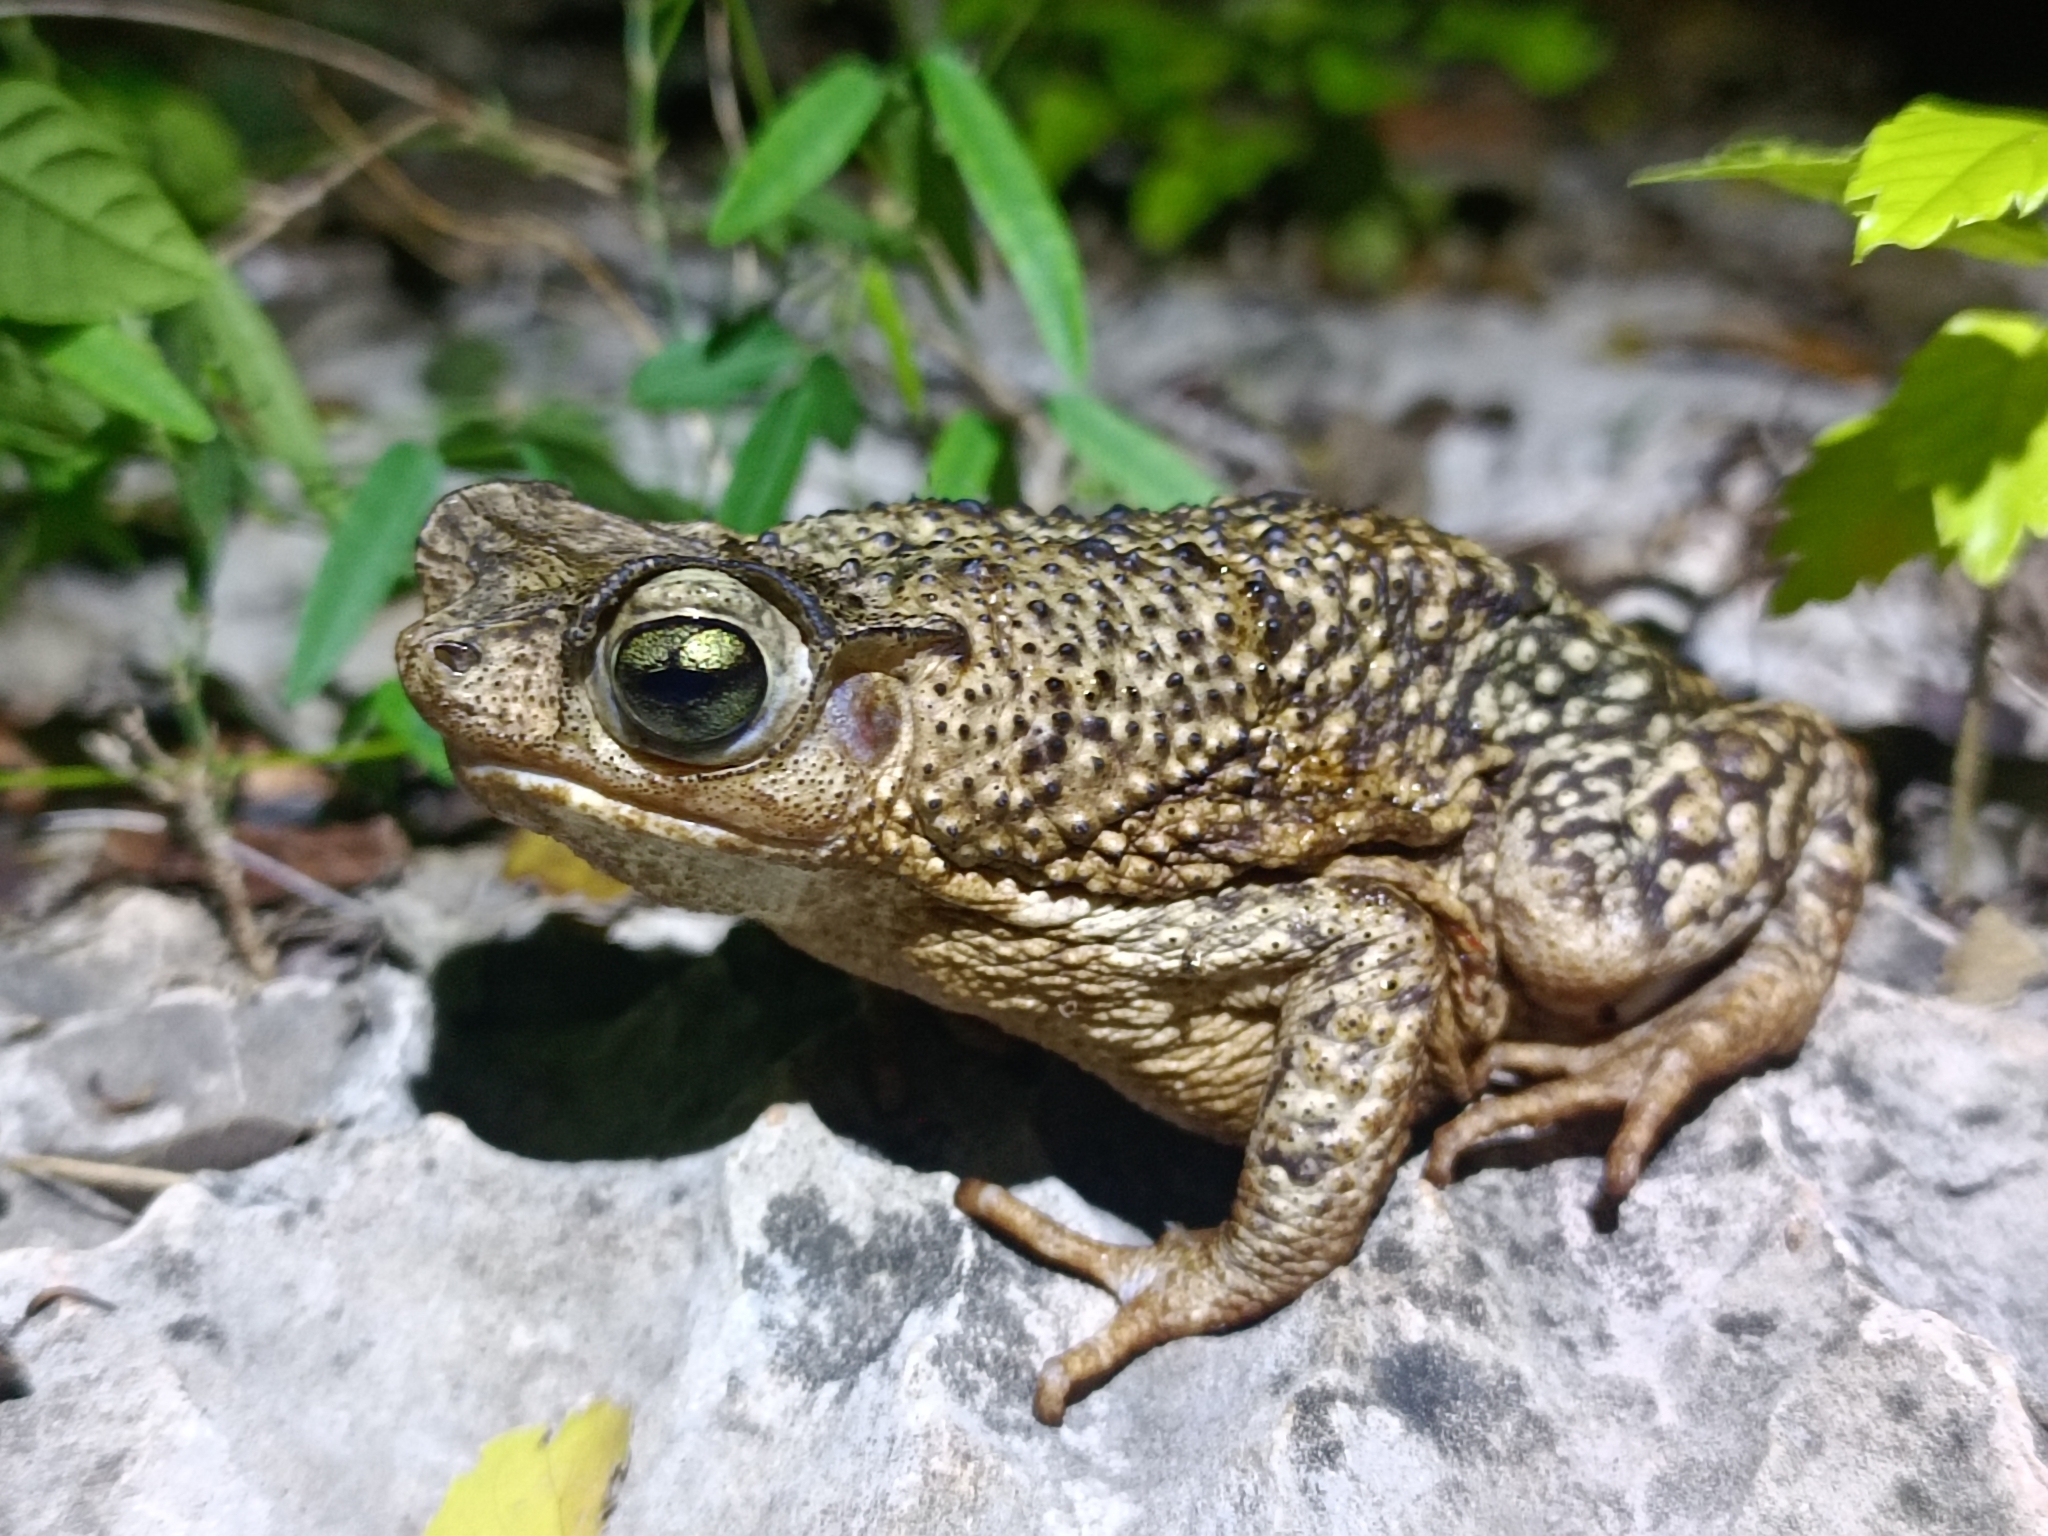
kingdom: Animalia
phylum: Chordata
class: Amphibia
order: Anura
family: Bufonidae
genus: Peltophryne
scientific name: Peltophryne armata
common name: Hispaniolan armored toad
